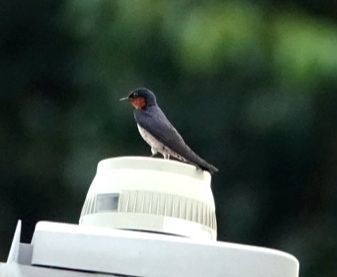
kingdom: Animalia
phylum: Chordata
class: Aves
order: Passeriformes
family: Hirundinidae
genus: Hirundo
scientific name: Hirundo tahitica
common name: Pacific swallow
